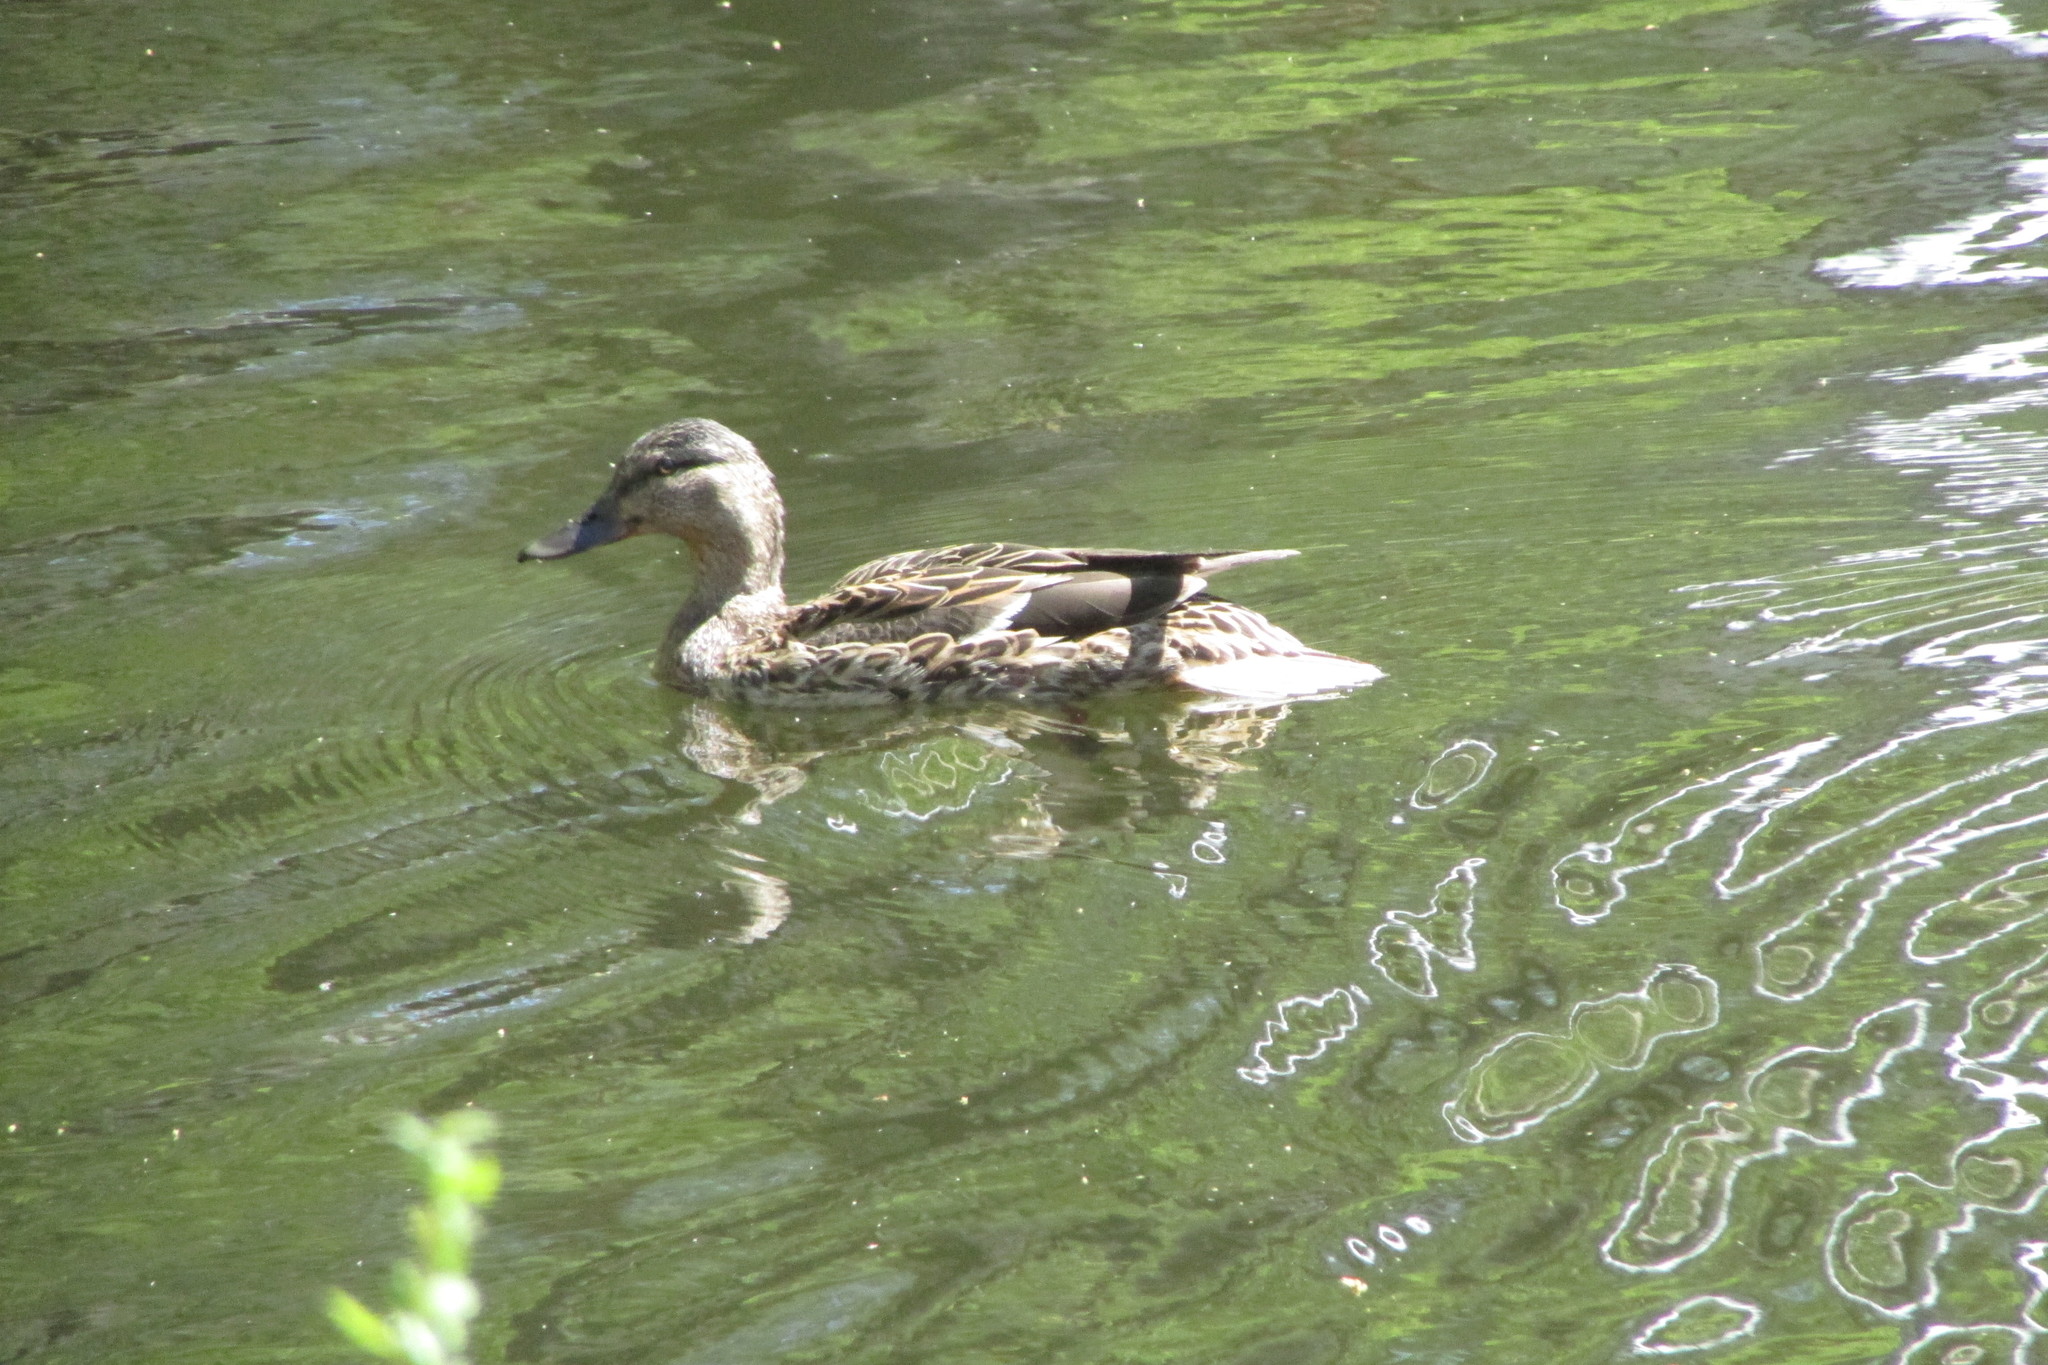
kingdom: Animalia
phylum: Chordata
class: Aves
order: Anseriformes
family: Anatidae
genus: Anas
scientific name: Anas platyrhynchos
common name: Mallard
